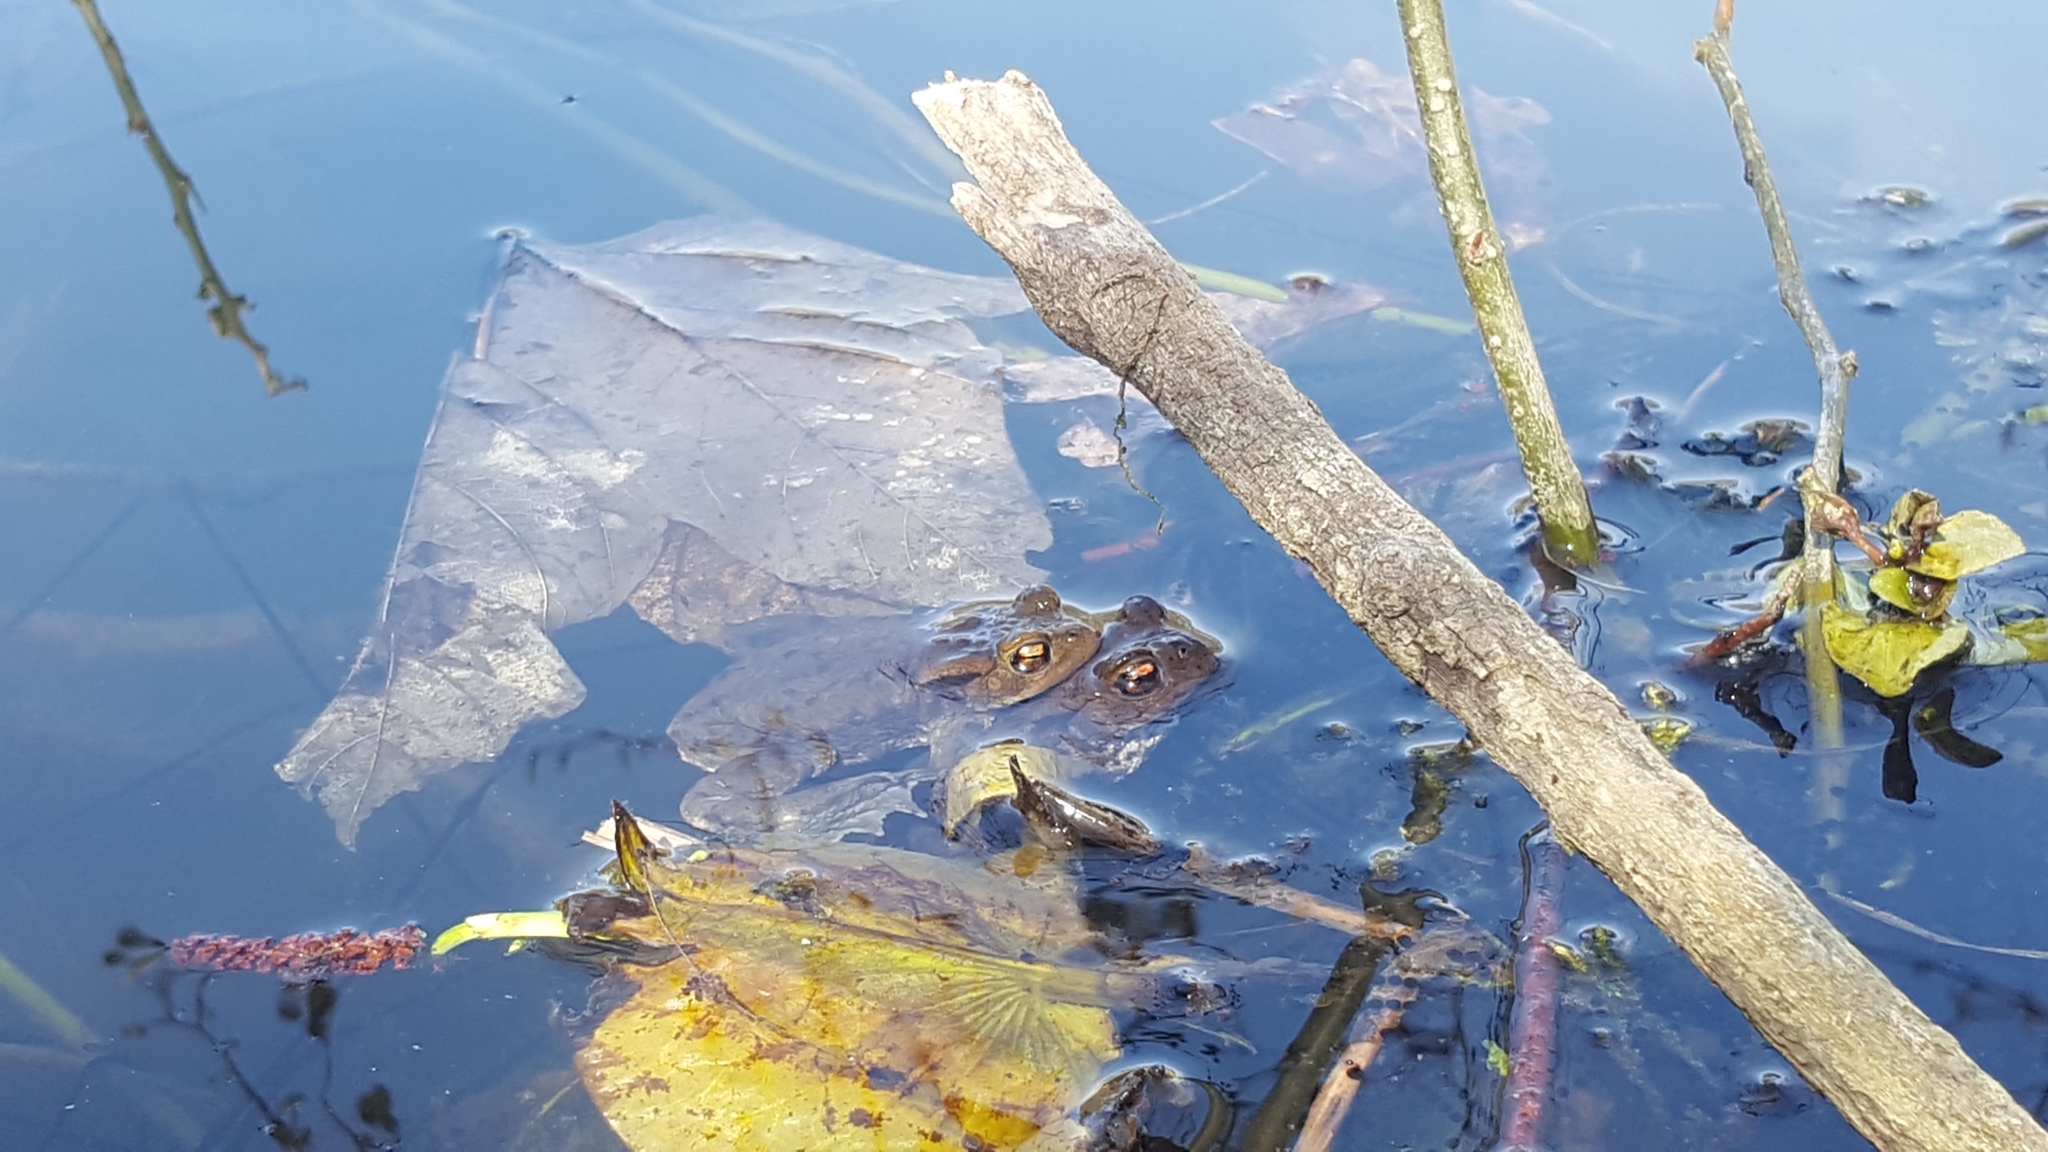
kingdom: Animalia
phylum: Chordata
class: Amphibia
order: Anura
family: Bufonidae
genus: Bufo
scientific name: Bufo bufo
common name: Common toad
